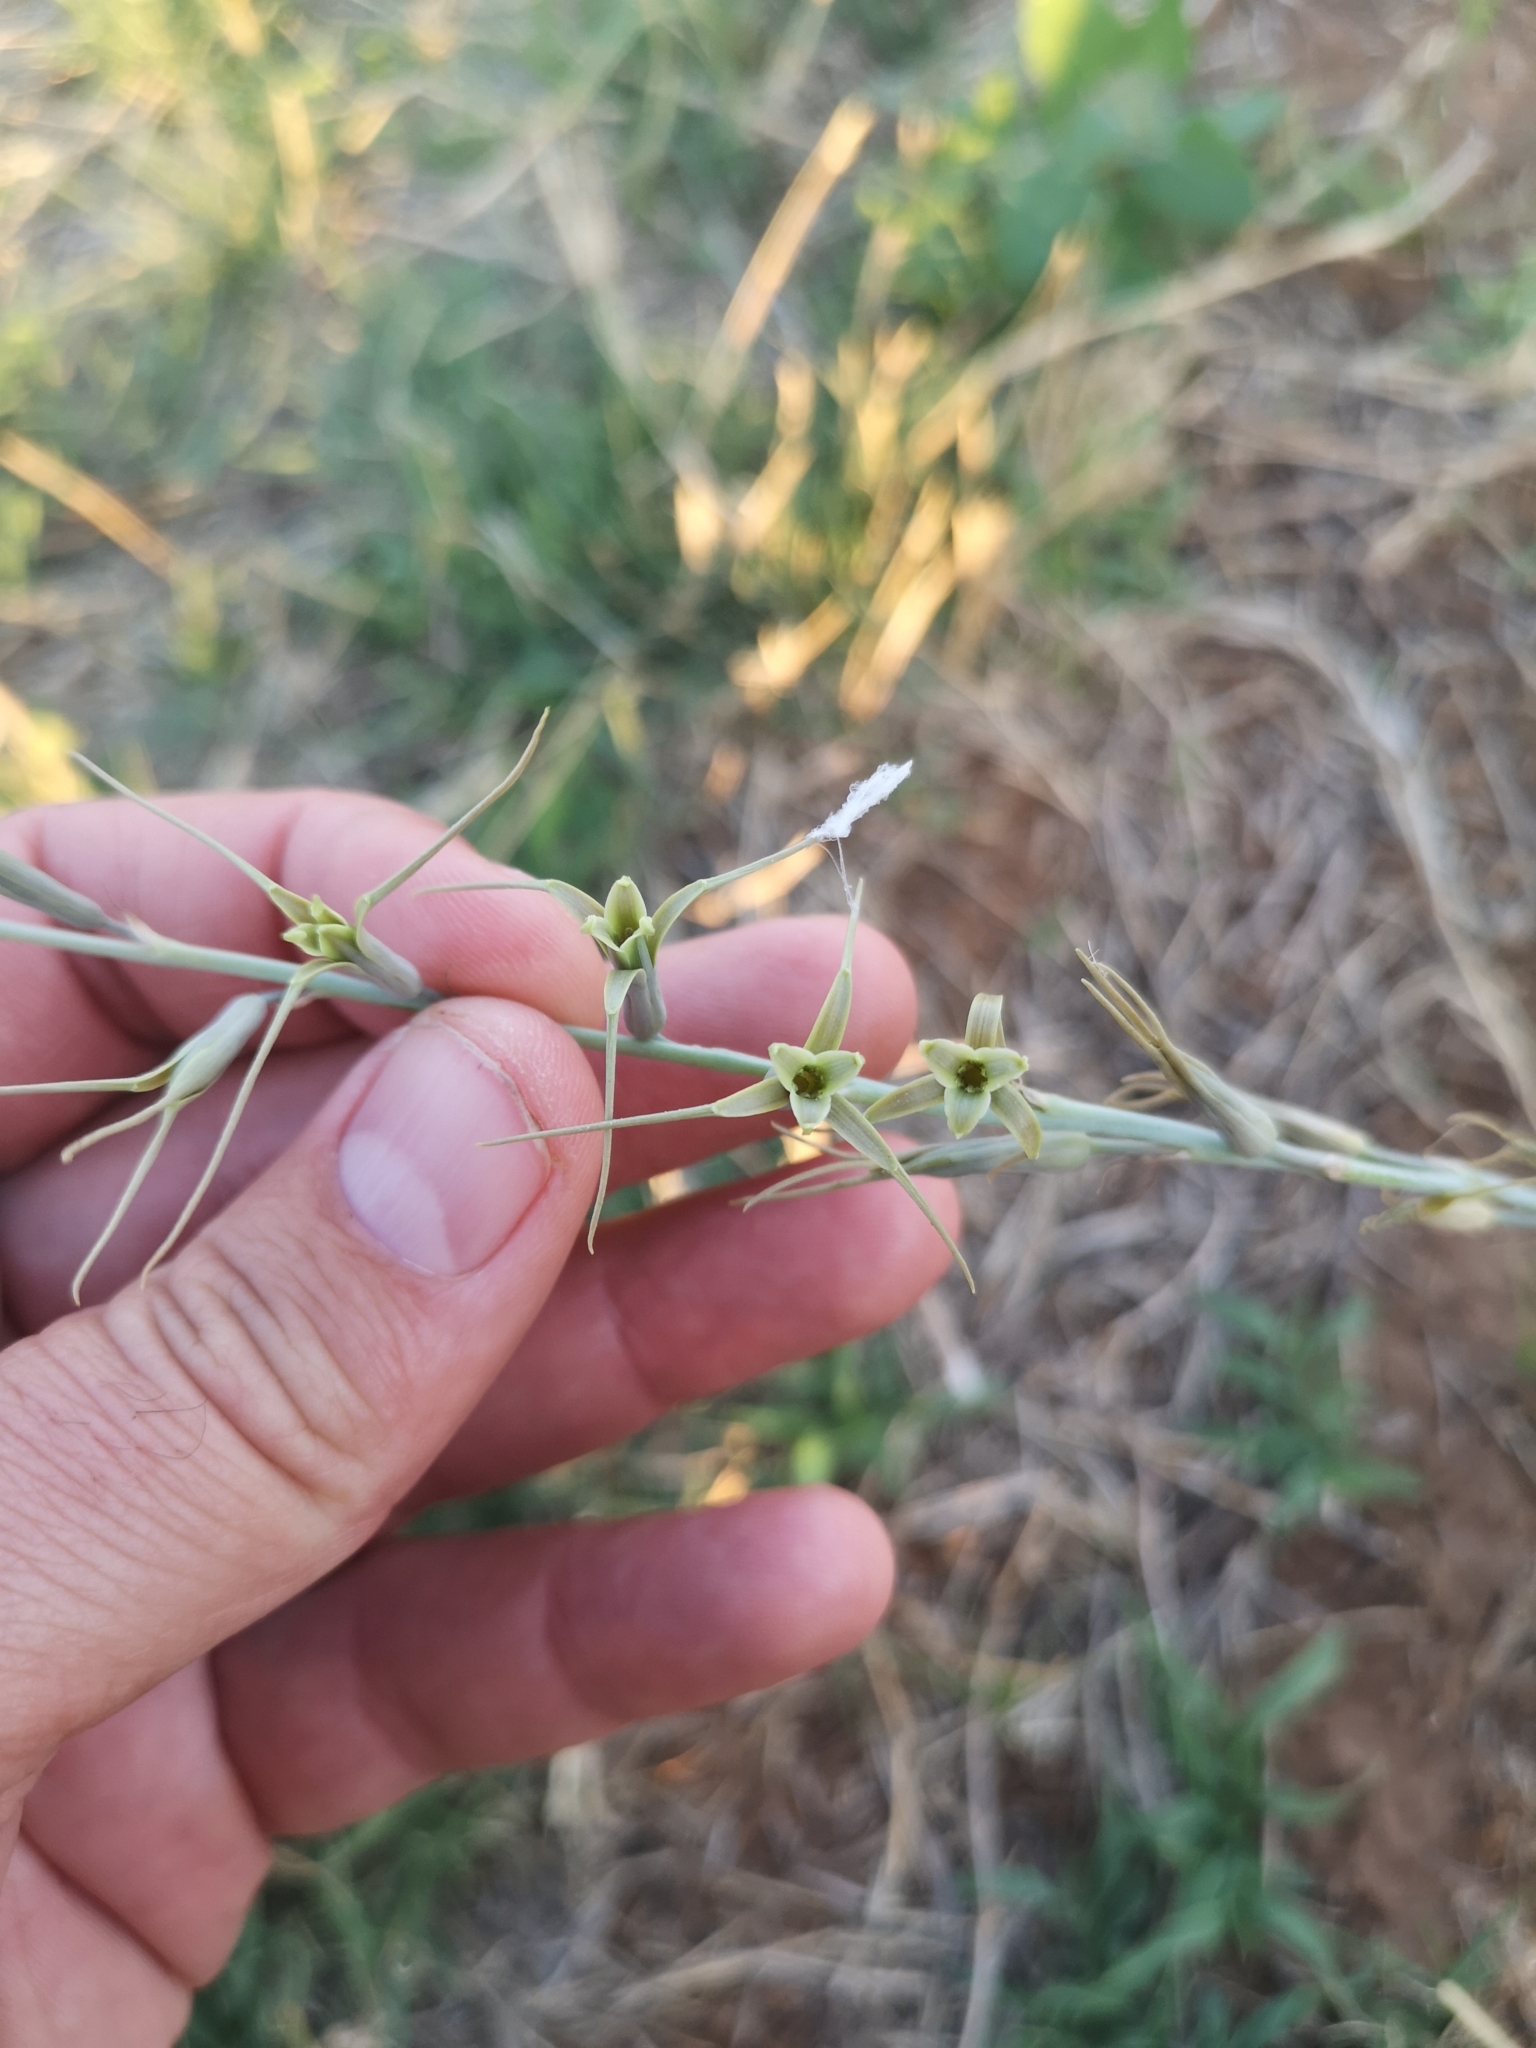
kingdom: Plantae
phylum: Tracheophyta
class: Liliopsida
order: Asparagales
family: Asparagaceae
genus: Dipcadi
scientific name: Dipcadi viride
